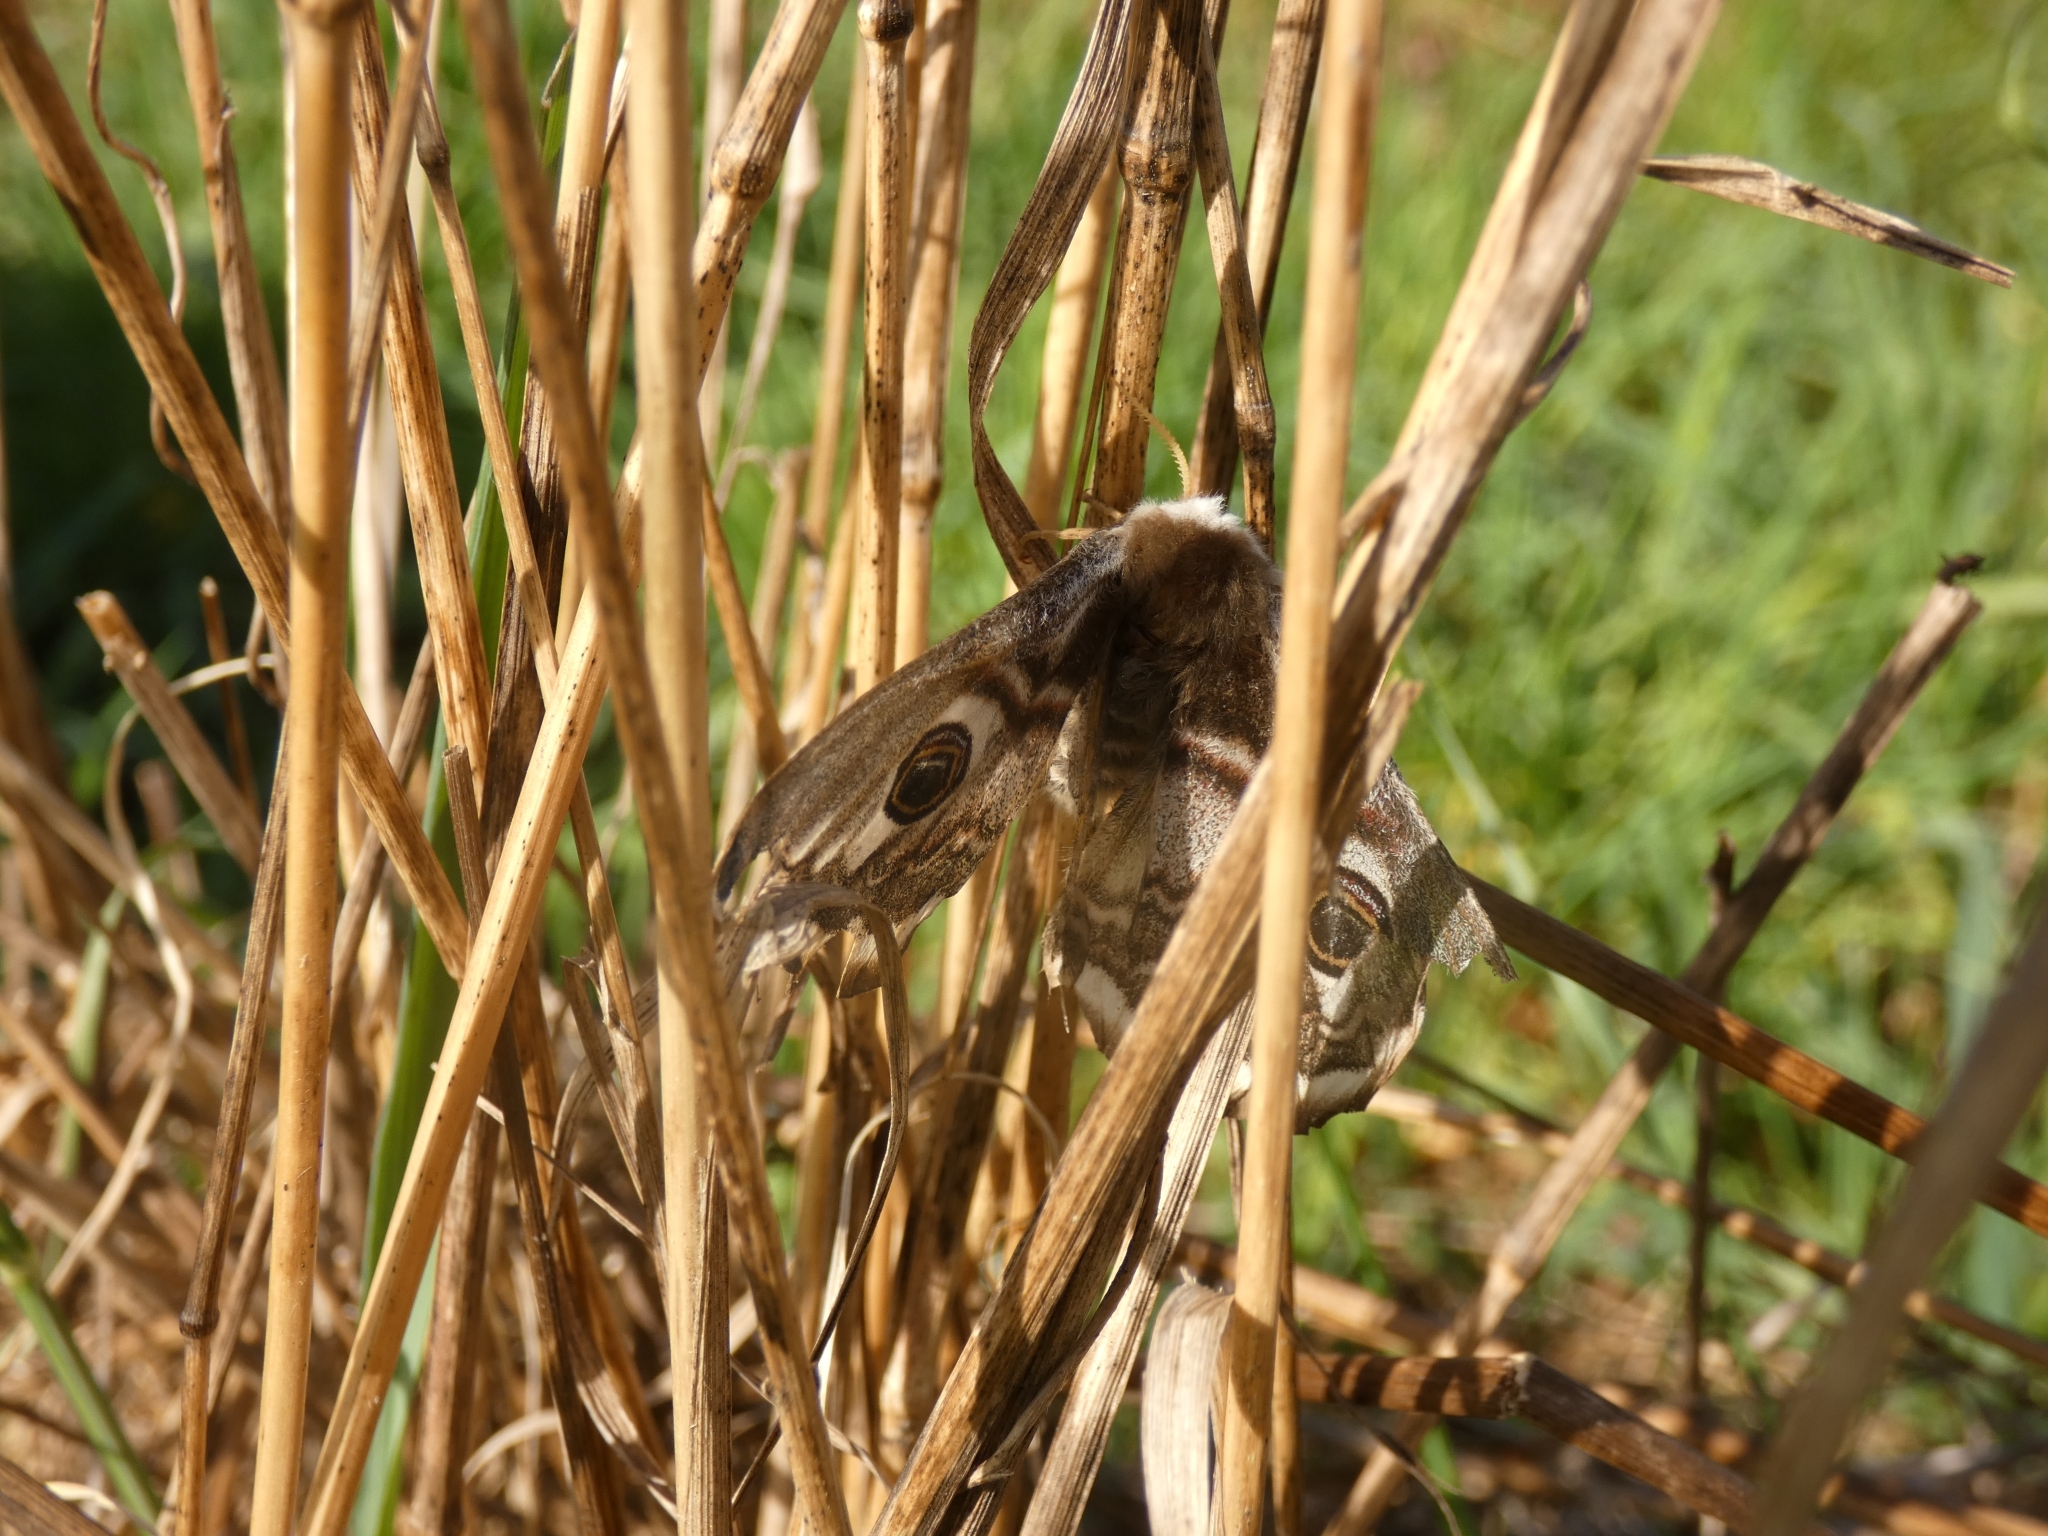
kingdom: Animalia
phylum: Arthropoda
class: Insecta
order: Lepidoptera
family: Saturniidae
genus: Saturnia
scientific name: Saturnia pavonia
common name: Emperor moth
